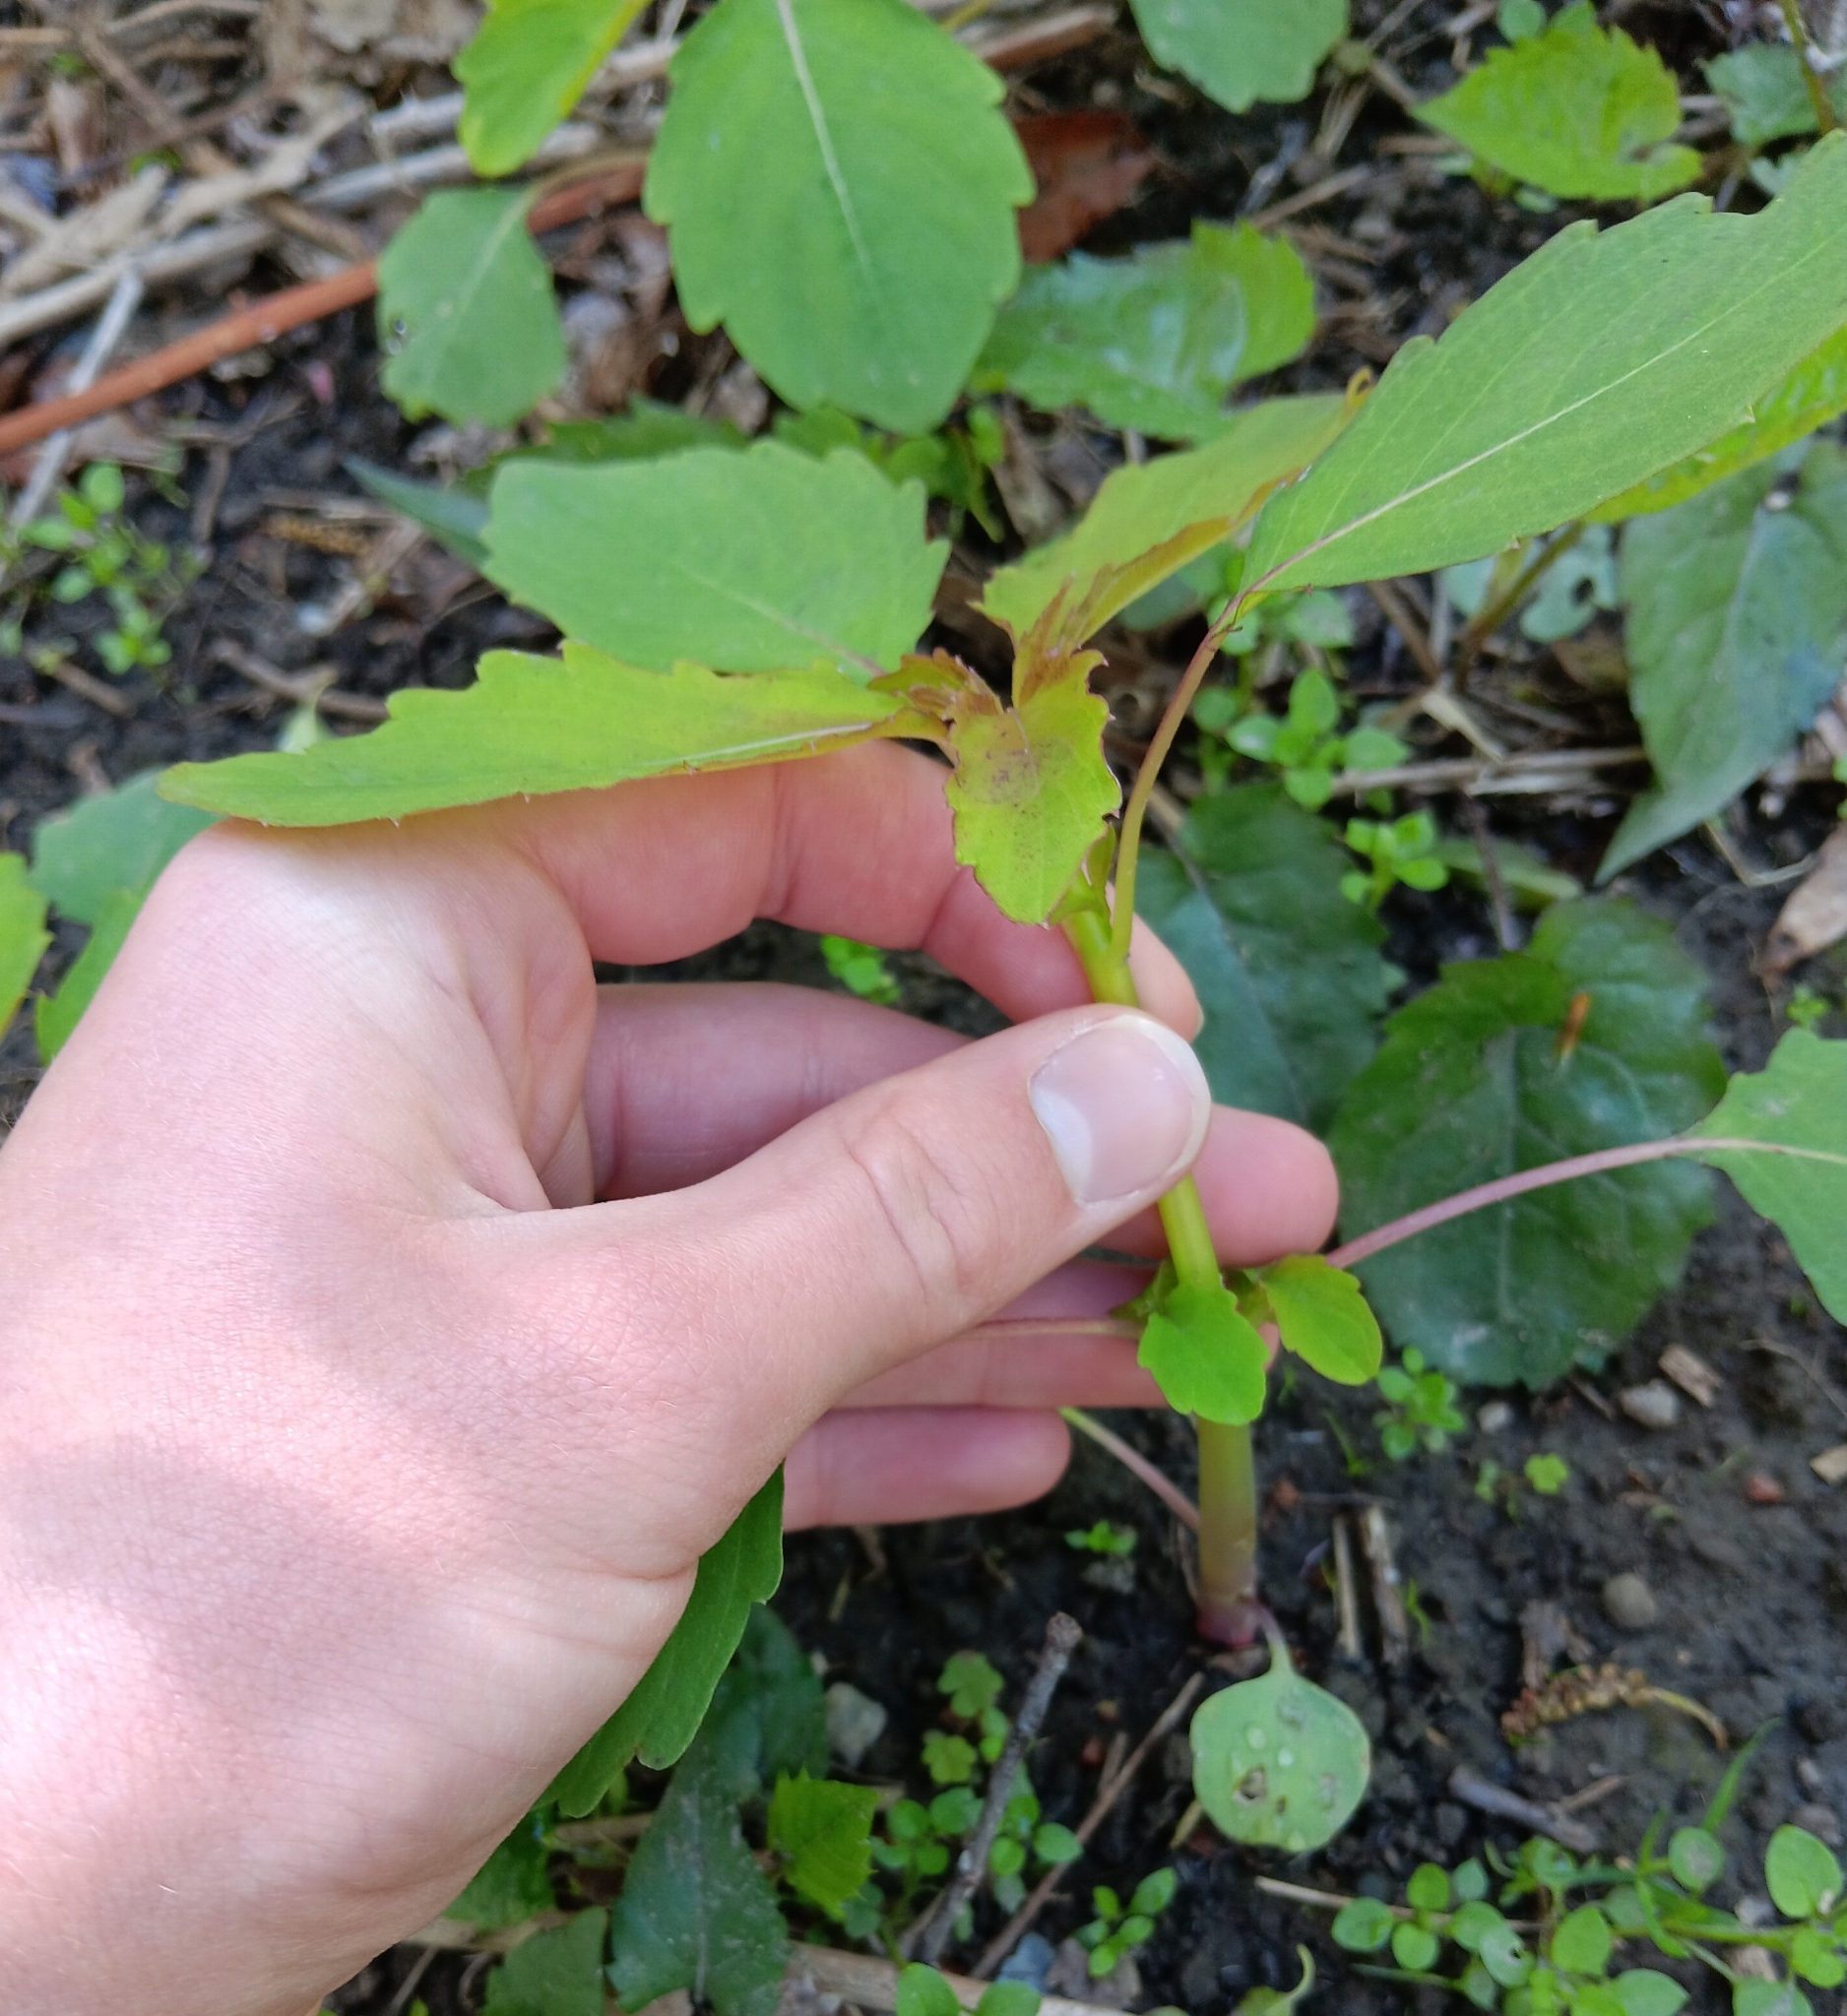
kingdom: Plantae
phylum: Tracheophyta
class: Magnoliopsida
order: Ericales
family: Balsaminaceae
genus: Impatiens
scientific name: Impatiens capensis
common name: Orange balsam
